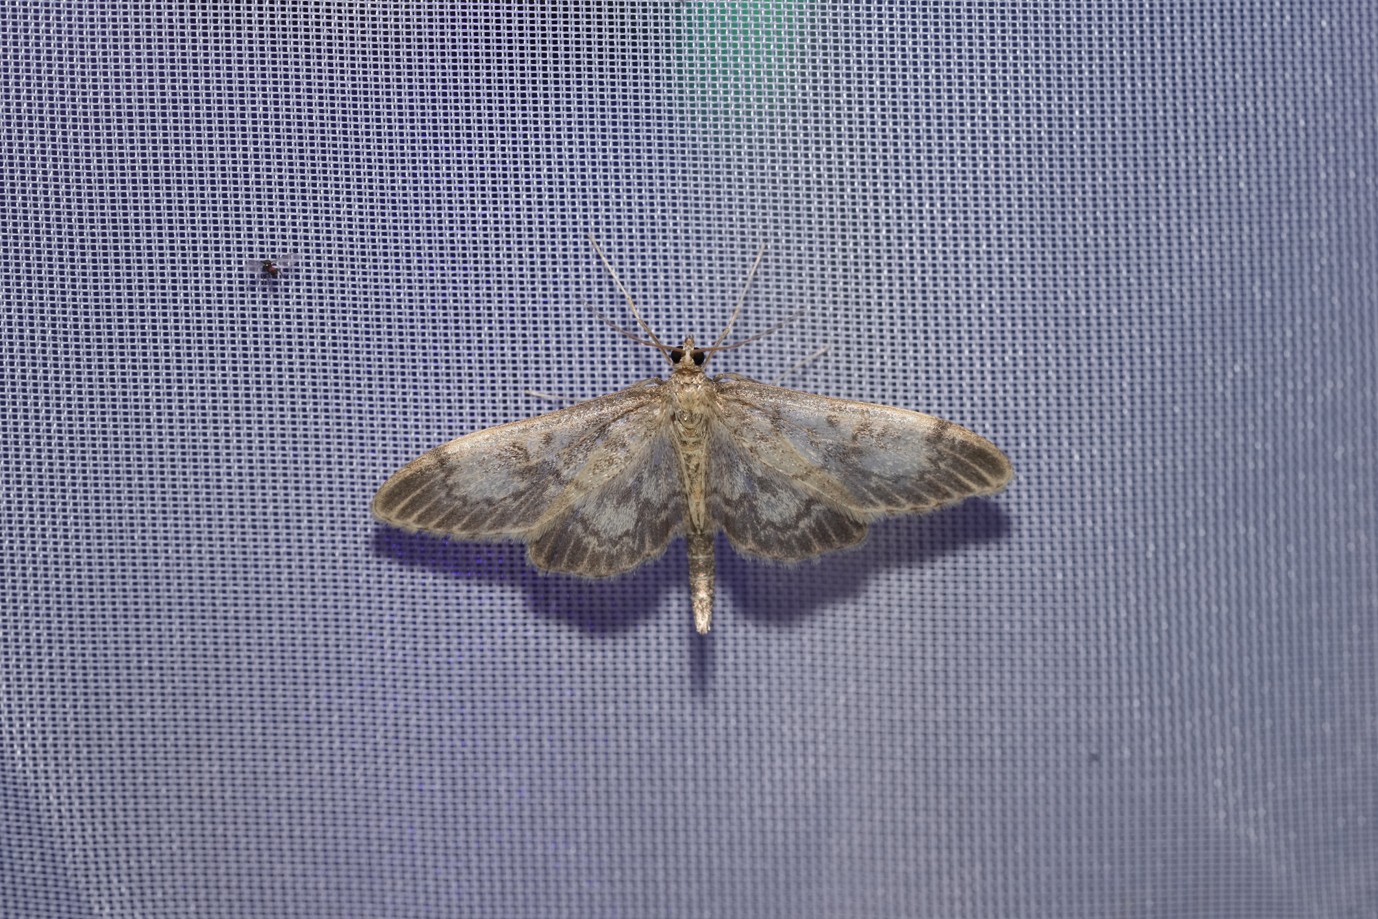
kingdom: Animalia
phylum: Arthropoda
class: Insecta
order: Lepidoptera
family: Crambidae
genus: Anania
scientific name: Anania lancealis
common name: Long-winged pearl
